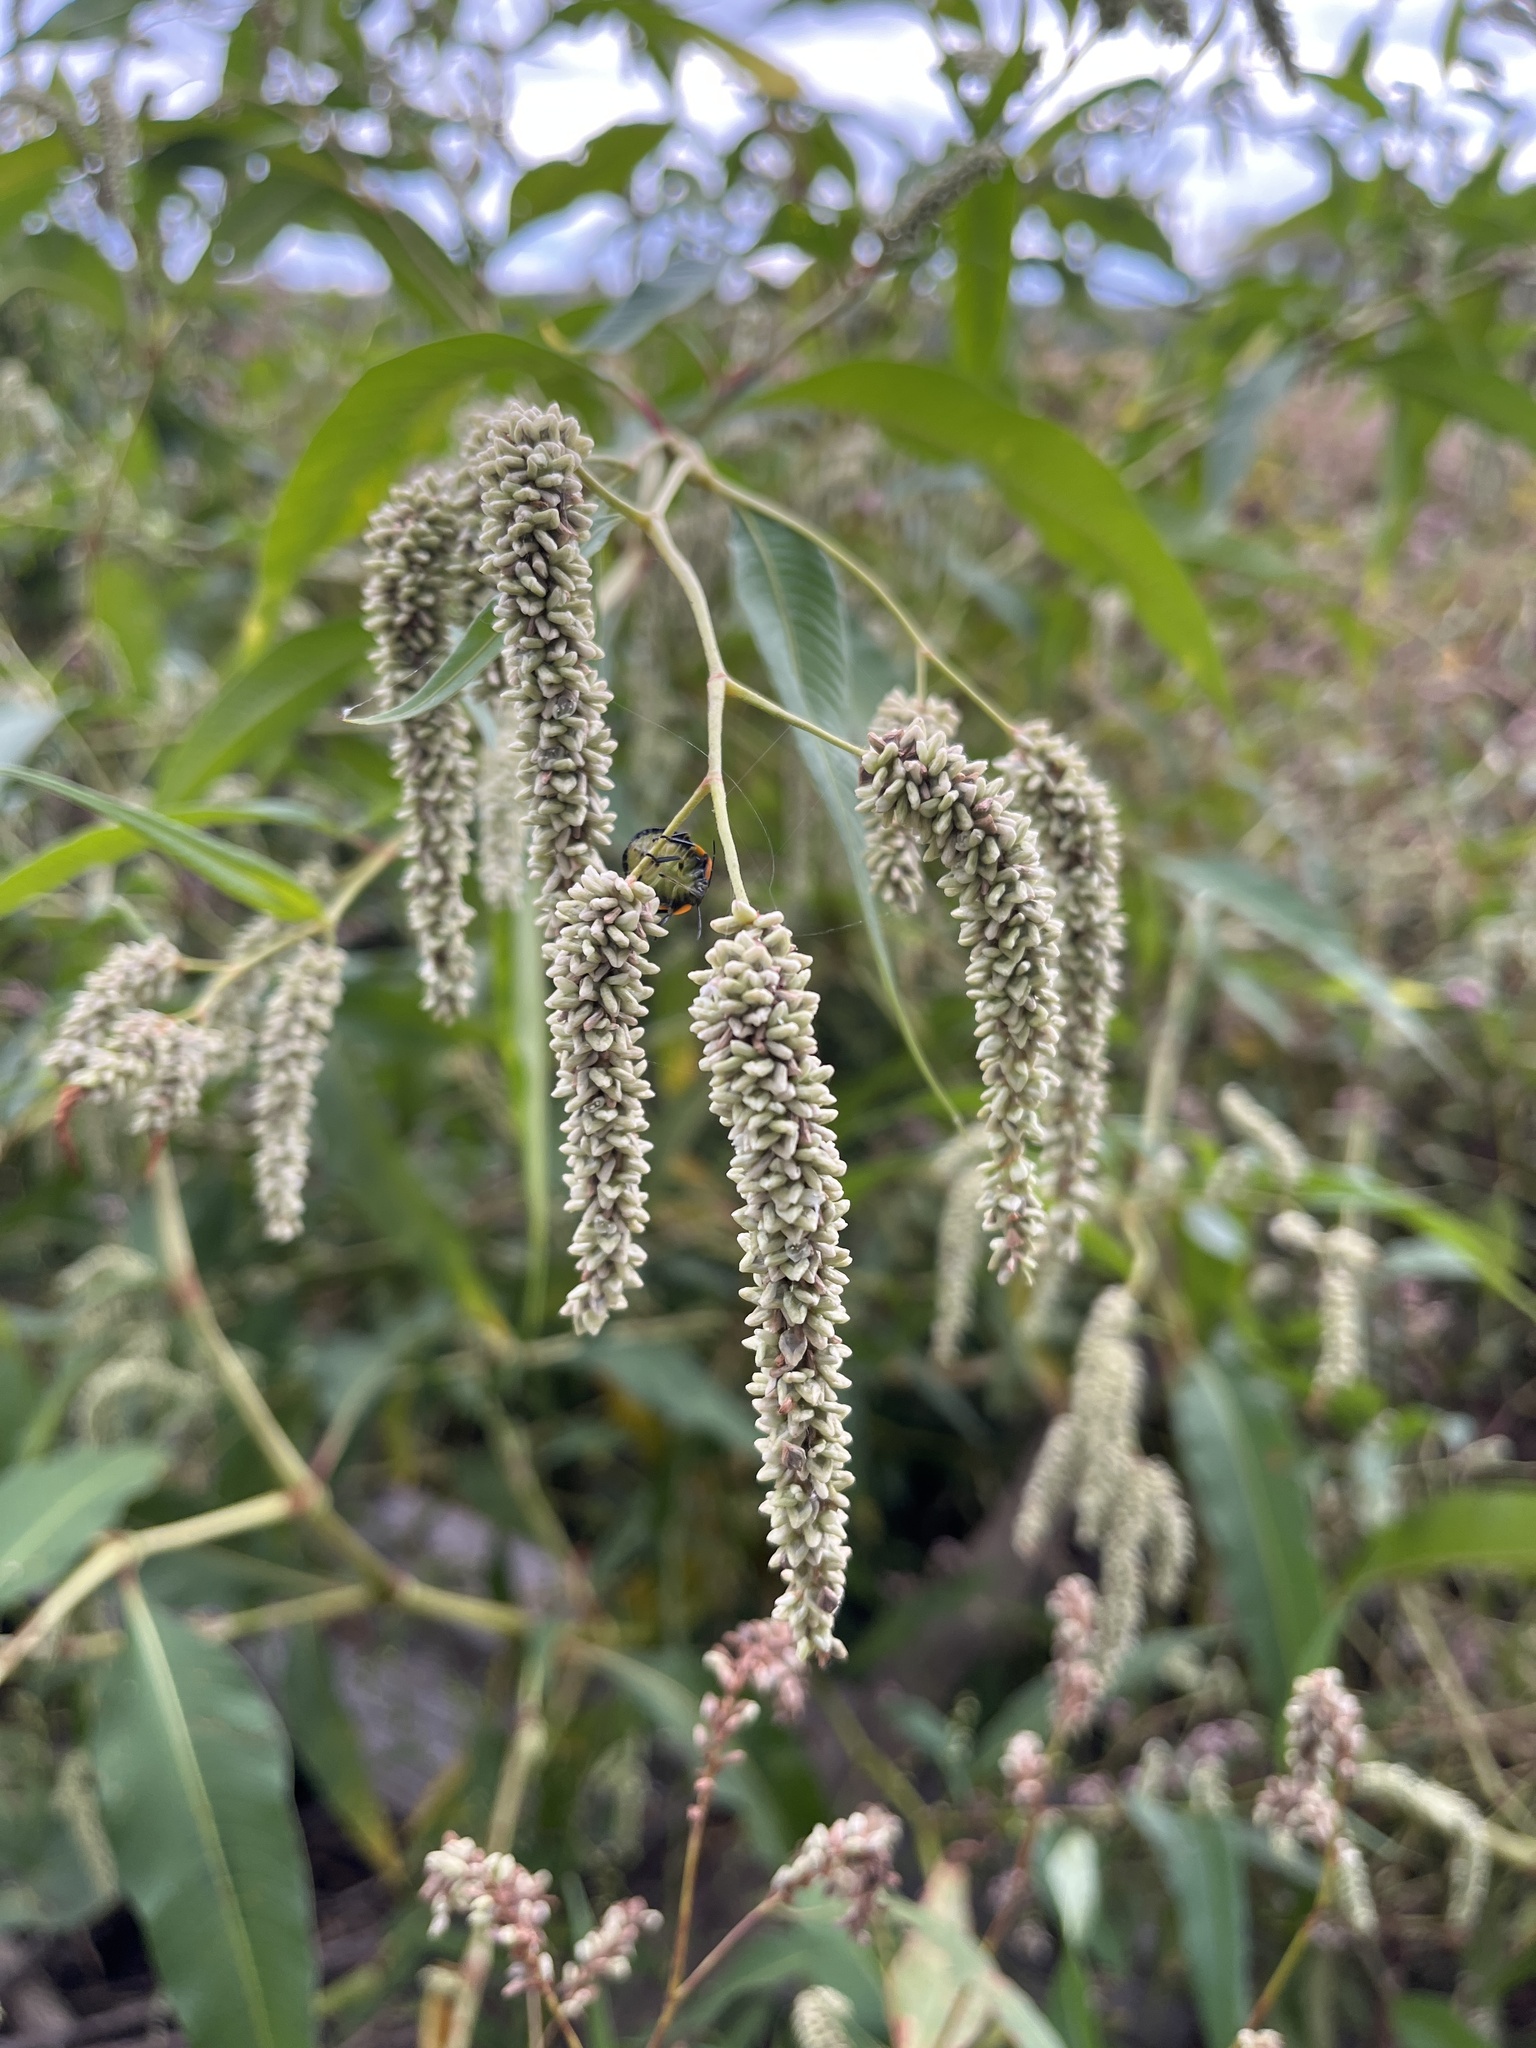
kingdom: Plantae
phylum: Tracheophyta
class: Magnoliopsida
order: Caryophyllales
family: Polygonaceae
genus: Persicaria
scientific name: Persicaria lapathifolia
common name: Curlytop knotweed
